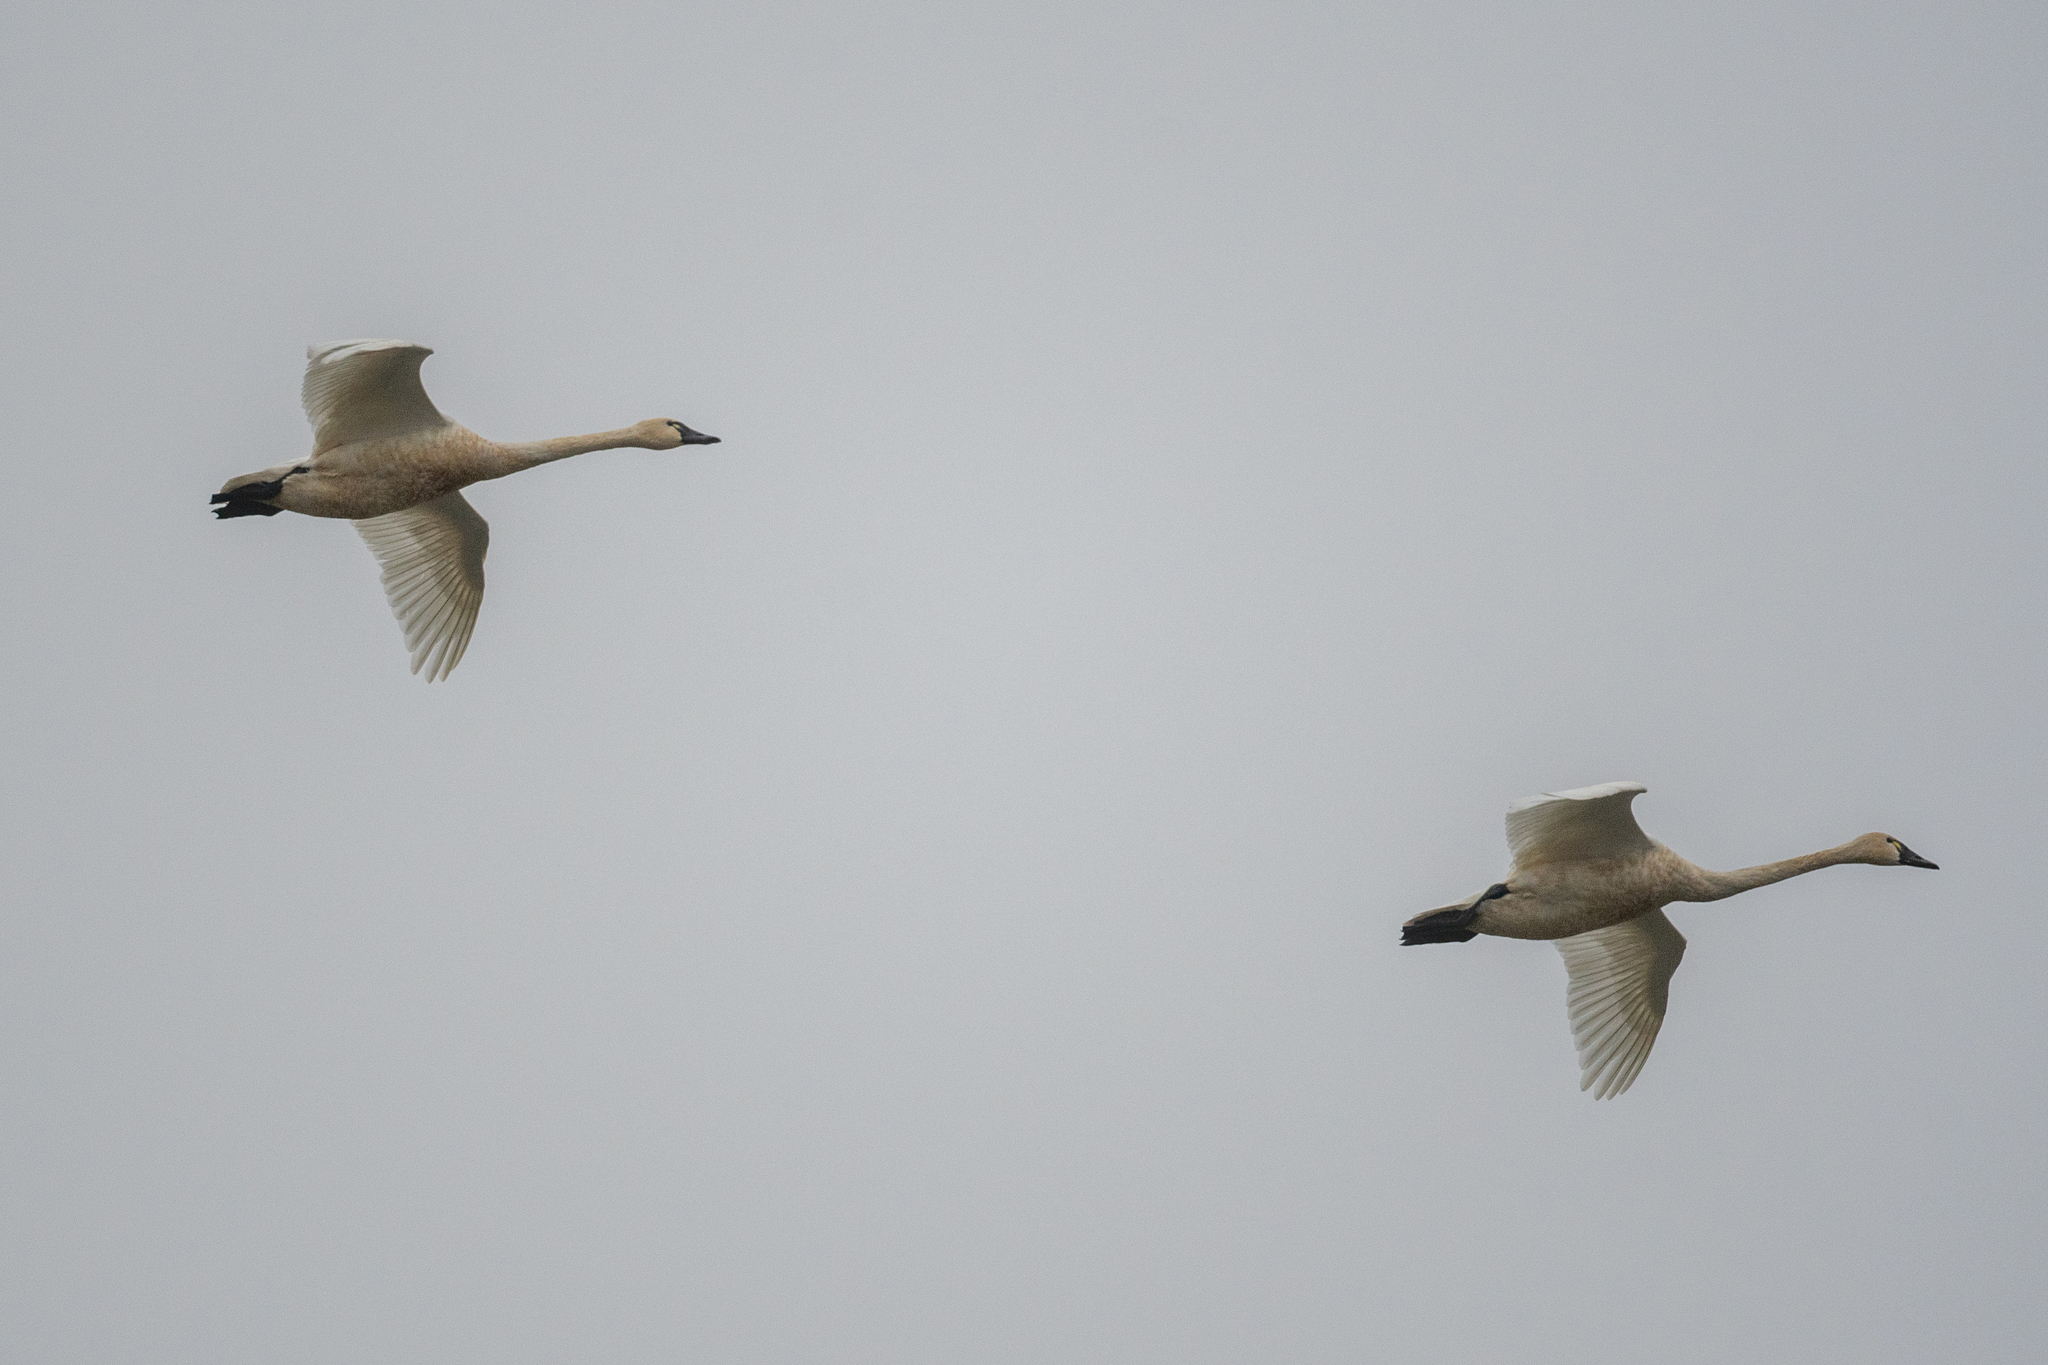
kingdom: Animalia
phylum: Chordata
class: Aves
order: Anseriformes
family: Anatidae
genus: Cygnus
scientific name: Cygnus columbianus
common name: Tundra swan
